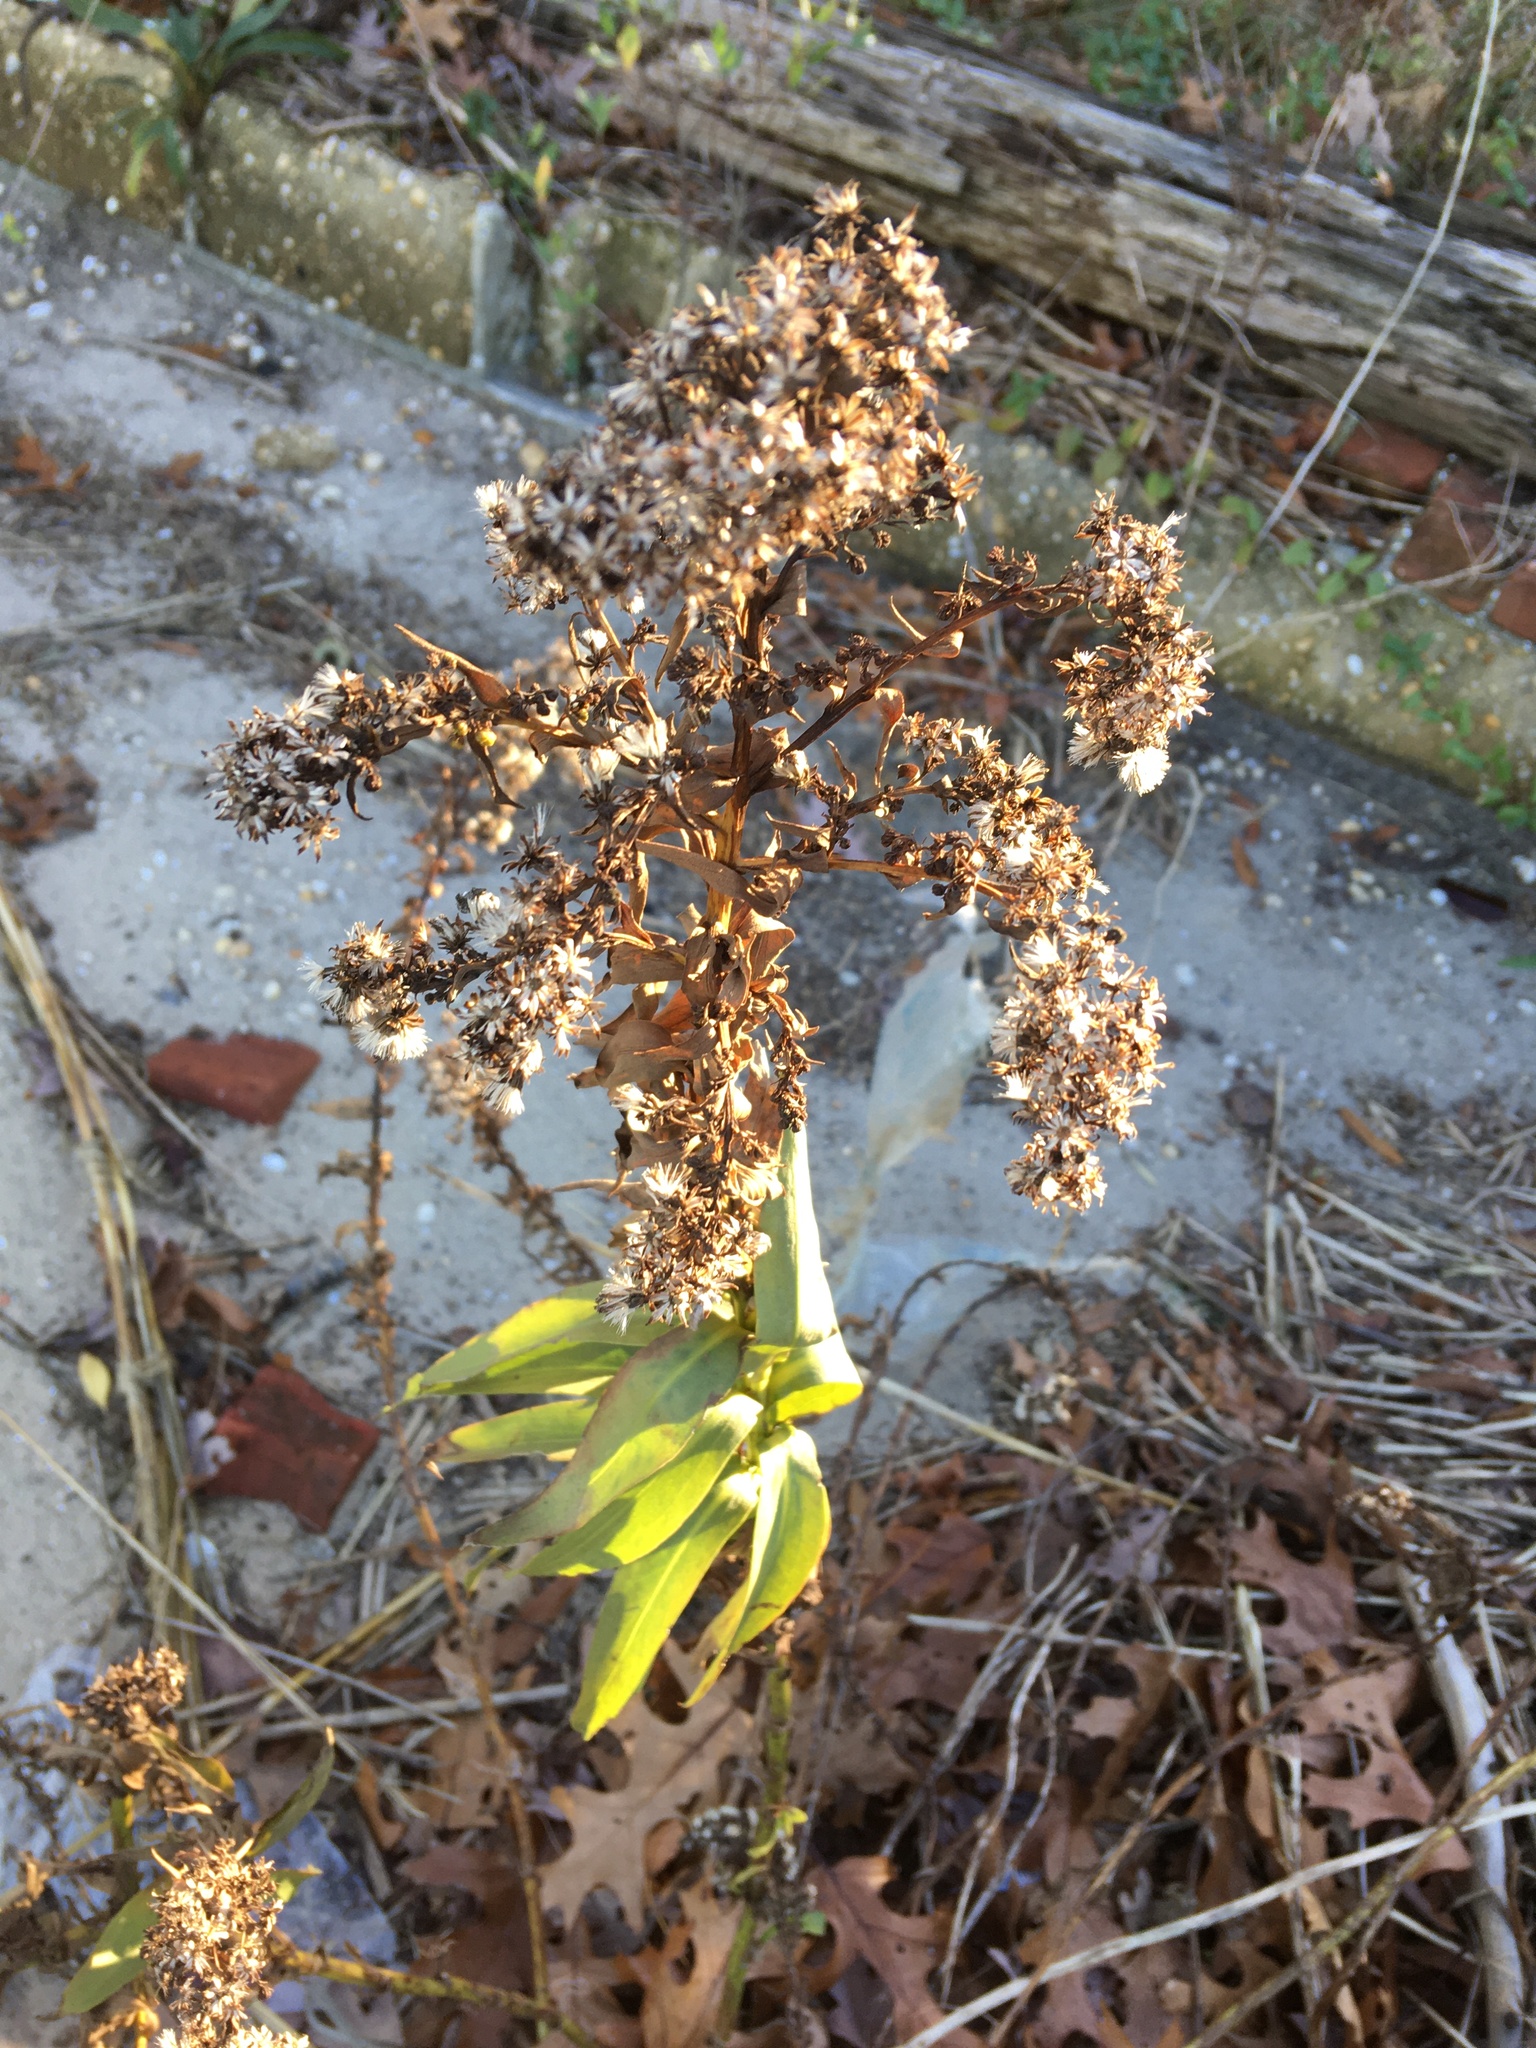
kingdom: Plantae
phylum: Tracheophyta
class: Magnoliopsida
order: Asterales
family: Asteraceae
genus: Solidago
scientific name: Solidago sempervirens
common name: Salt-marsh goldenrod
